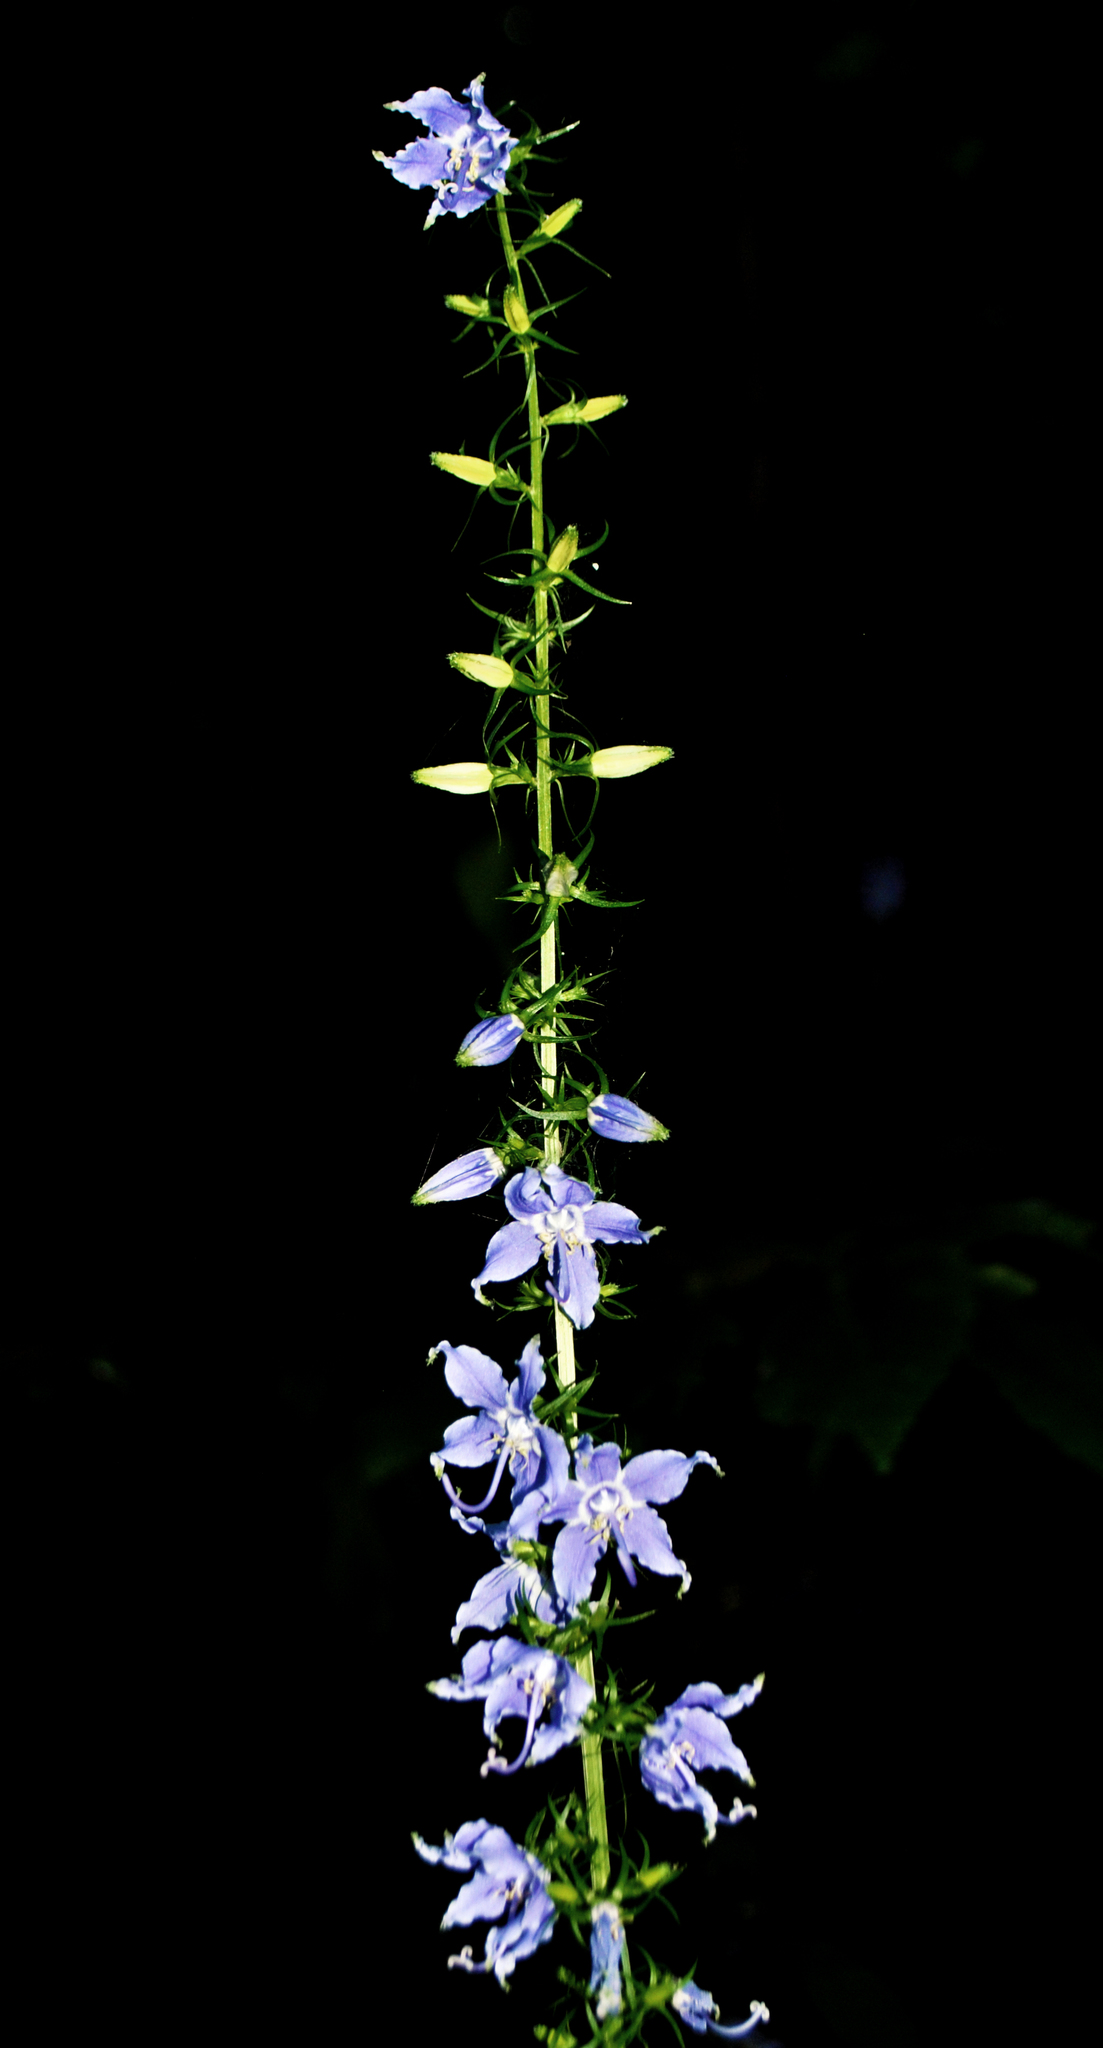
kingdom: Plantae
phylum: Tracheophyta
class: Magnoliopsida
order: Asterales
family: Campanulaceae
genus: Campanulastrum
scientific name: Campanulastrum americanum
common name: American bellflower
